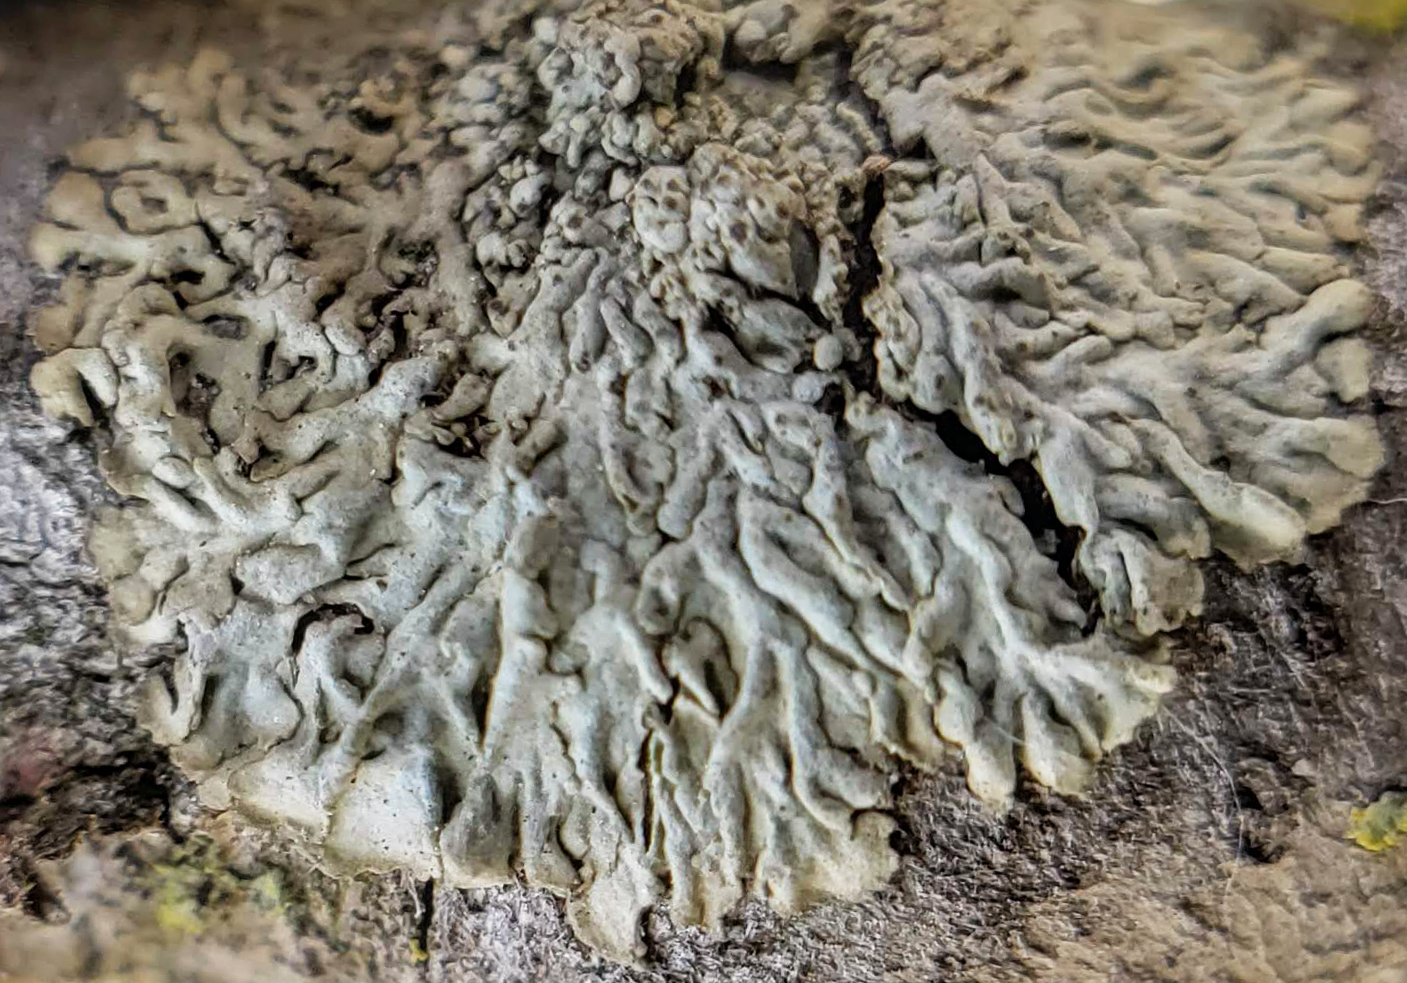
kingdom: Fungi
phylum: Ascomycota
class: Lecanoromycetes
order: Caliciales
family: Physciaceae
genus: Hyperphyscia
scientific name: Hyperphyscia syncolla
